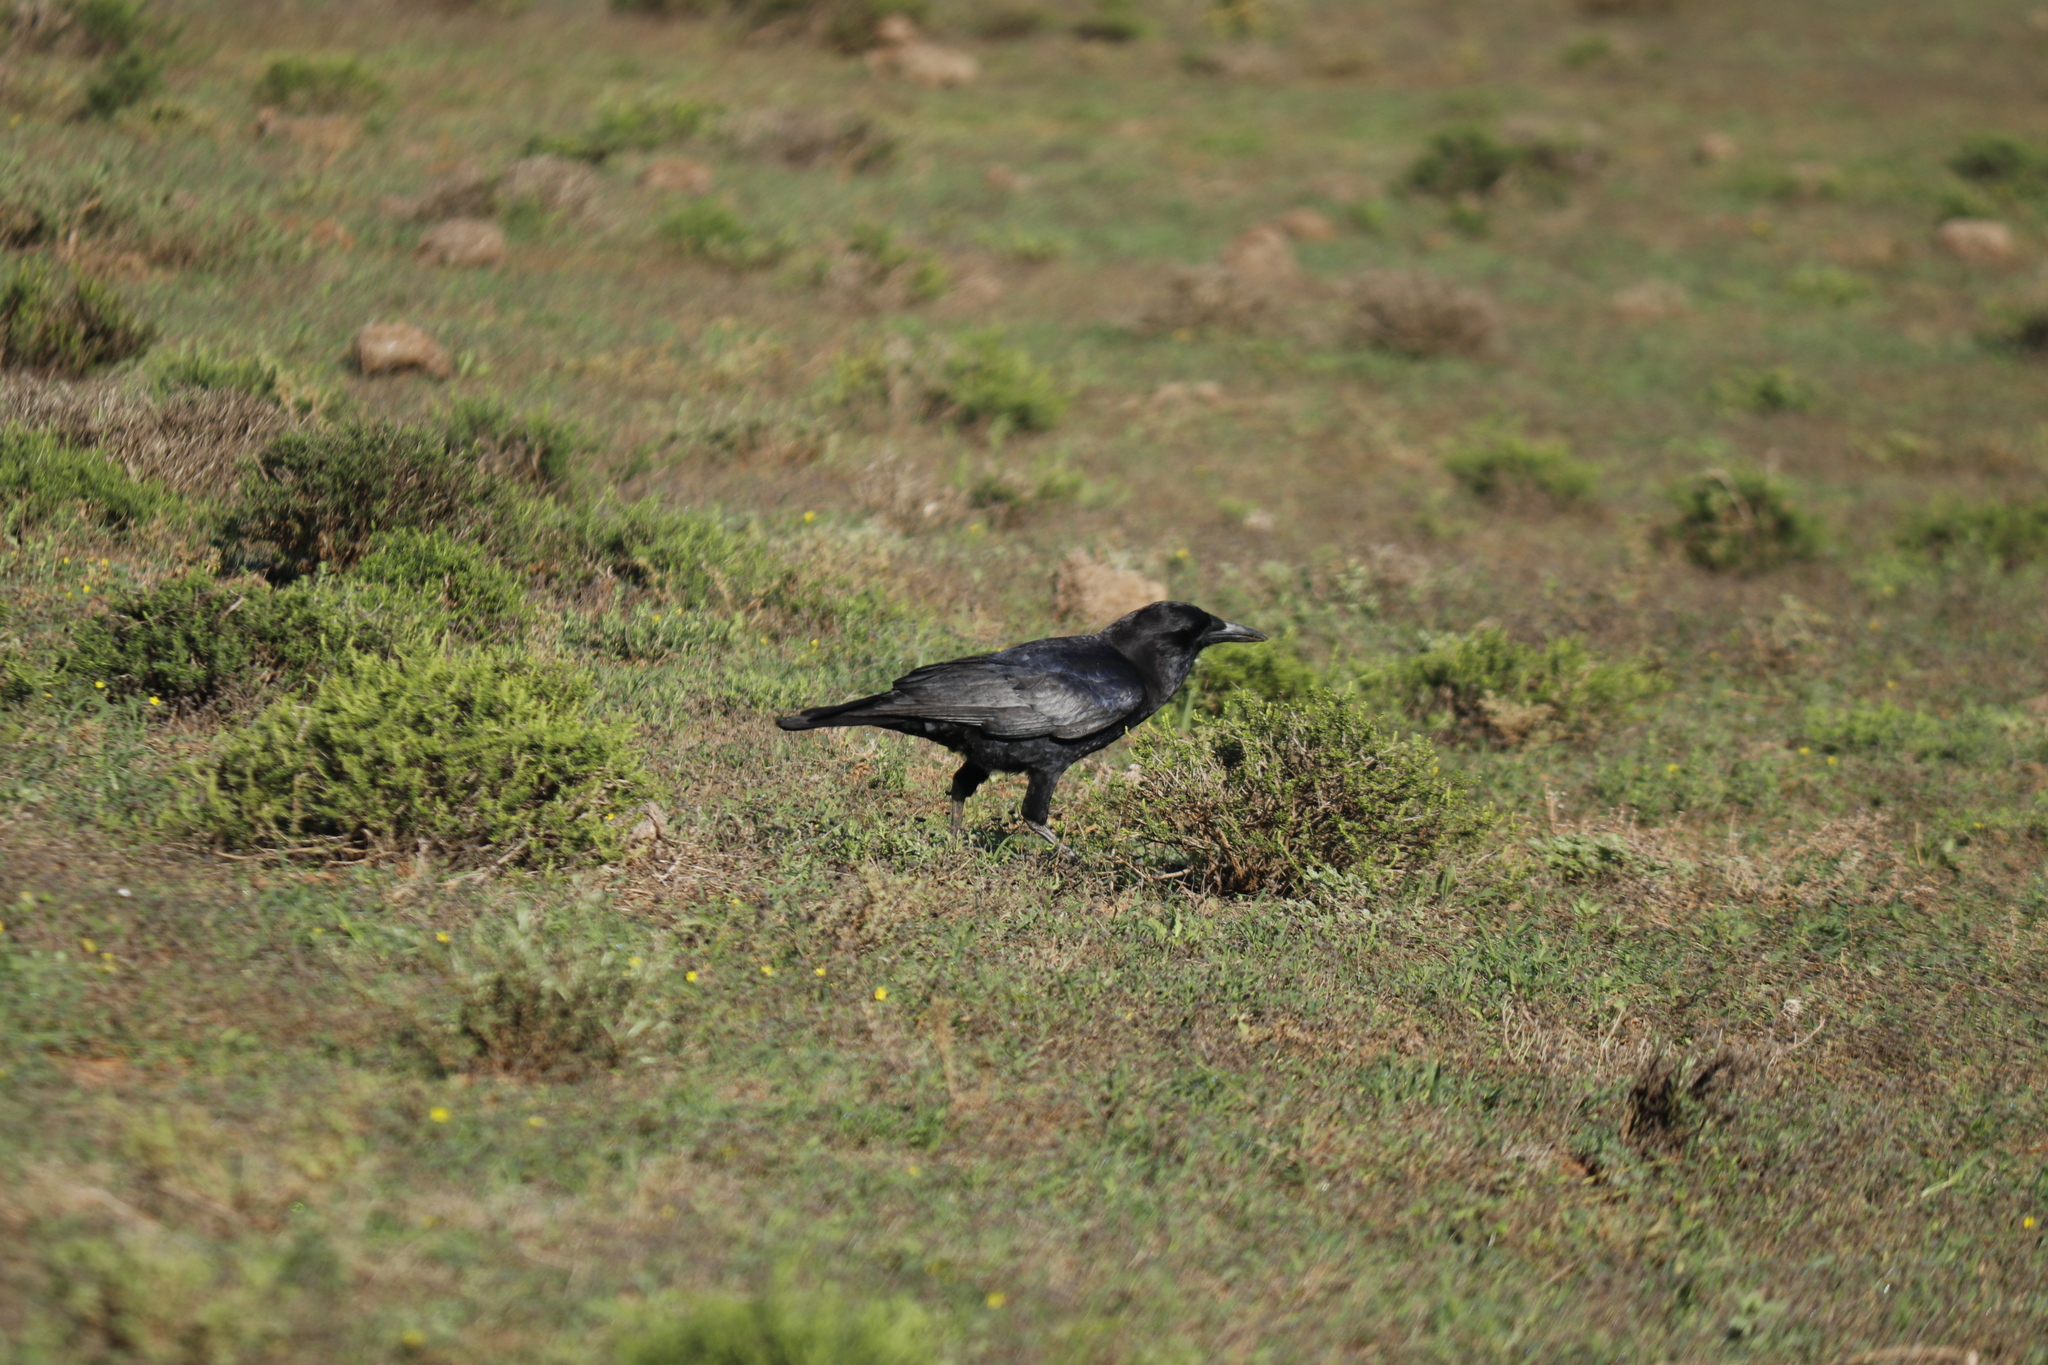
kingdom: Animalia
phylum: Chordata
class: Aves
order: Passeriformes
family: Corvidae
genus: Corvus
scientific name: Corvus capensis
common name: Cape crow
